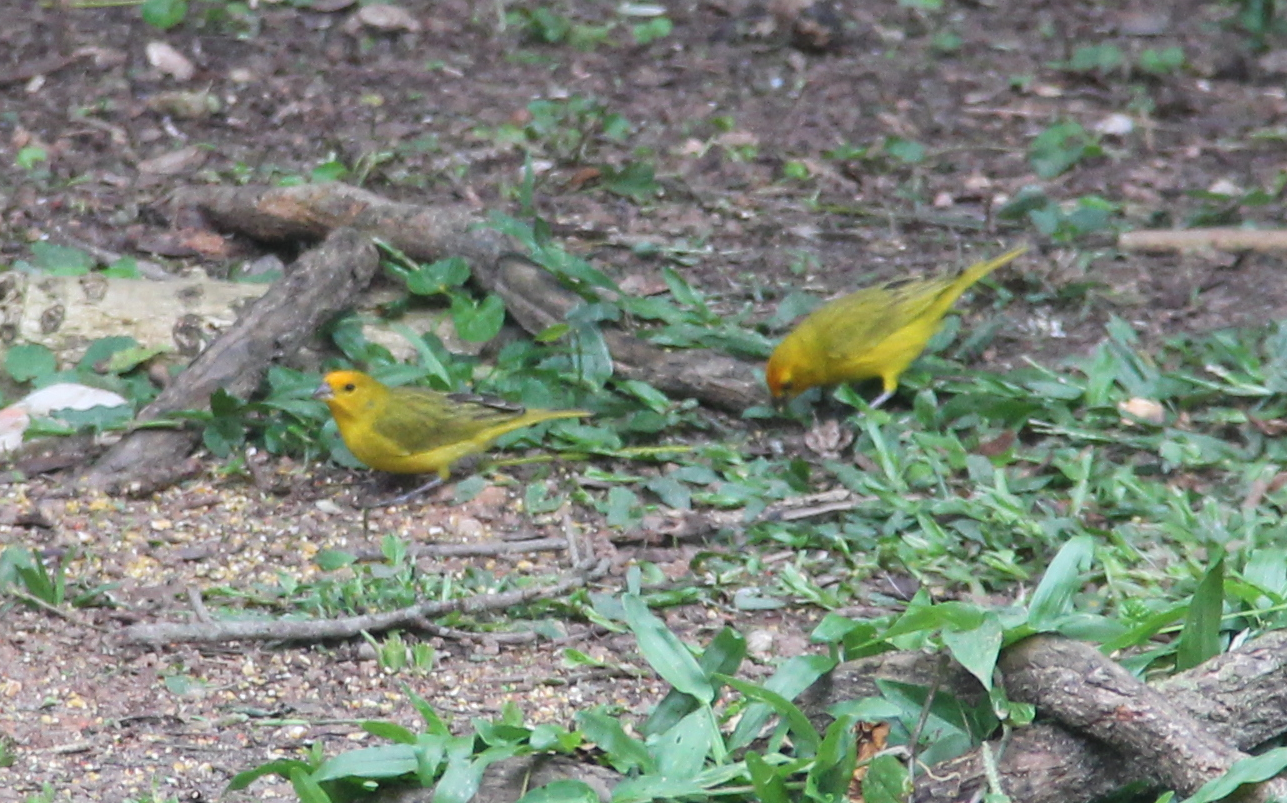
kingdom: Animalia
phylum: Chordata
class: Aves
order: Passeriformes
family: Thraupidae
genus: Sicalis
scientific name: Sicalis flaveola
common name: Saffron finch
